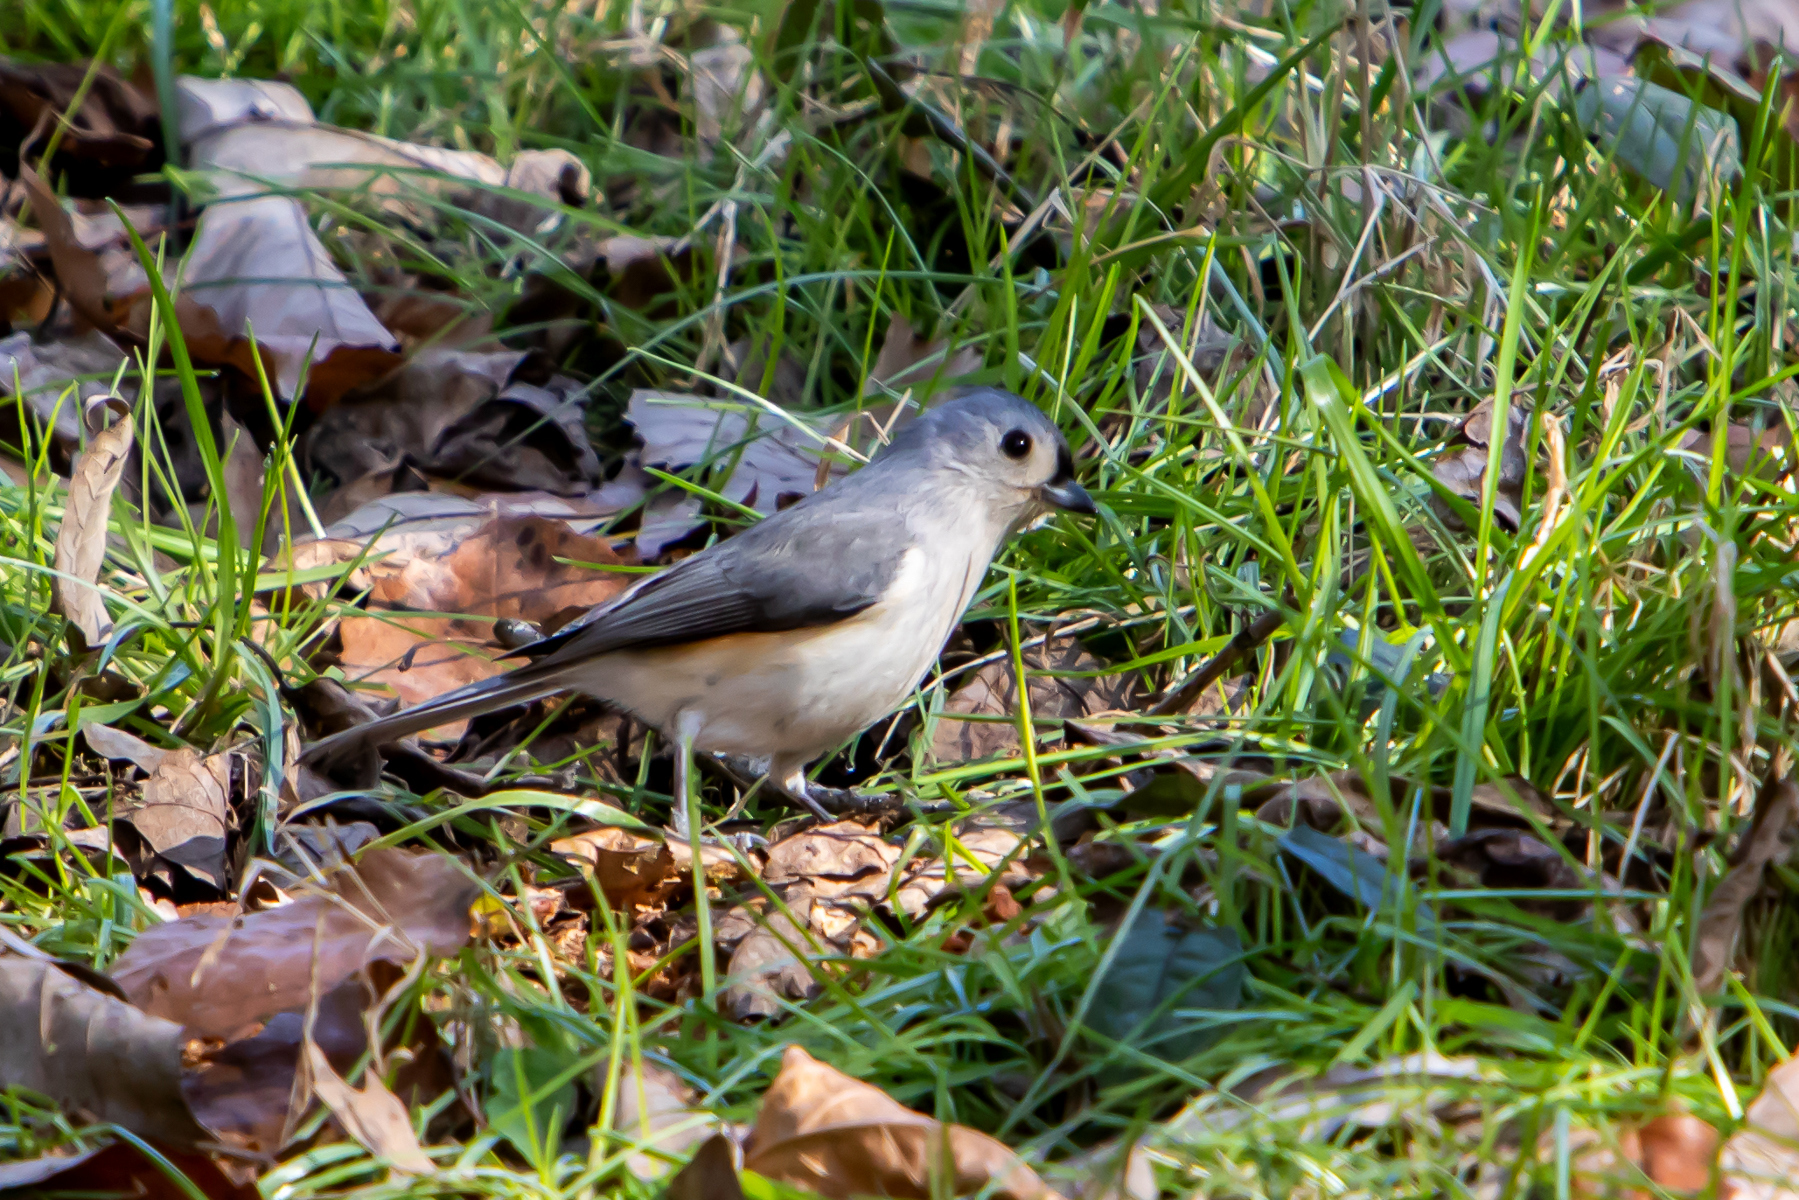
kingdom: Animalia
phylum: Chordata
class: Aves
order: Passeriformes
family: Paridae
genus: Baeolophus
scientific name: Baeolophus bicolor
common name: Tufted titmouse
